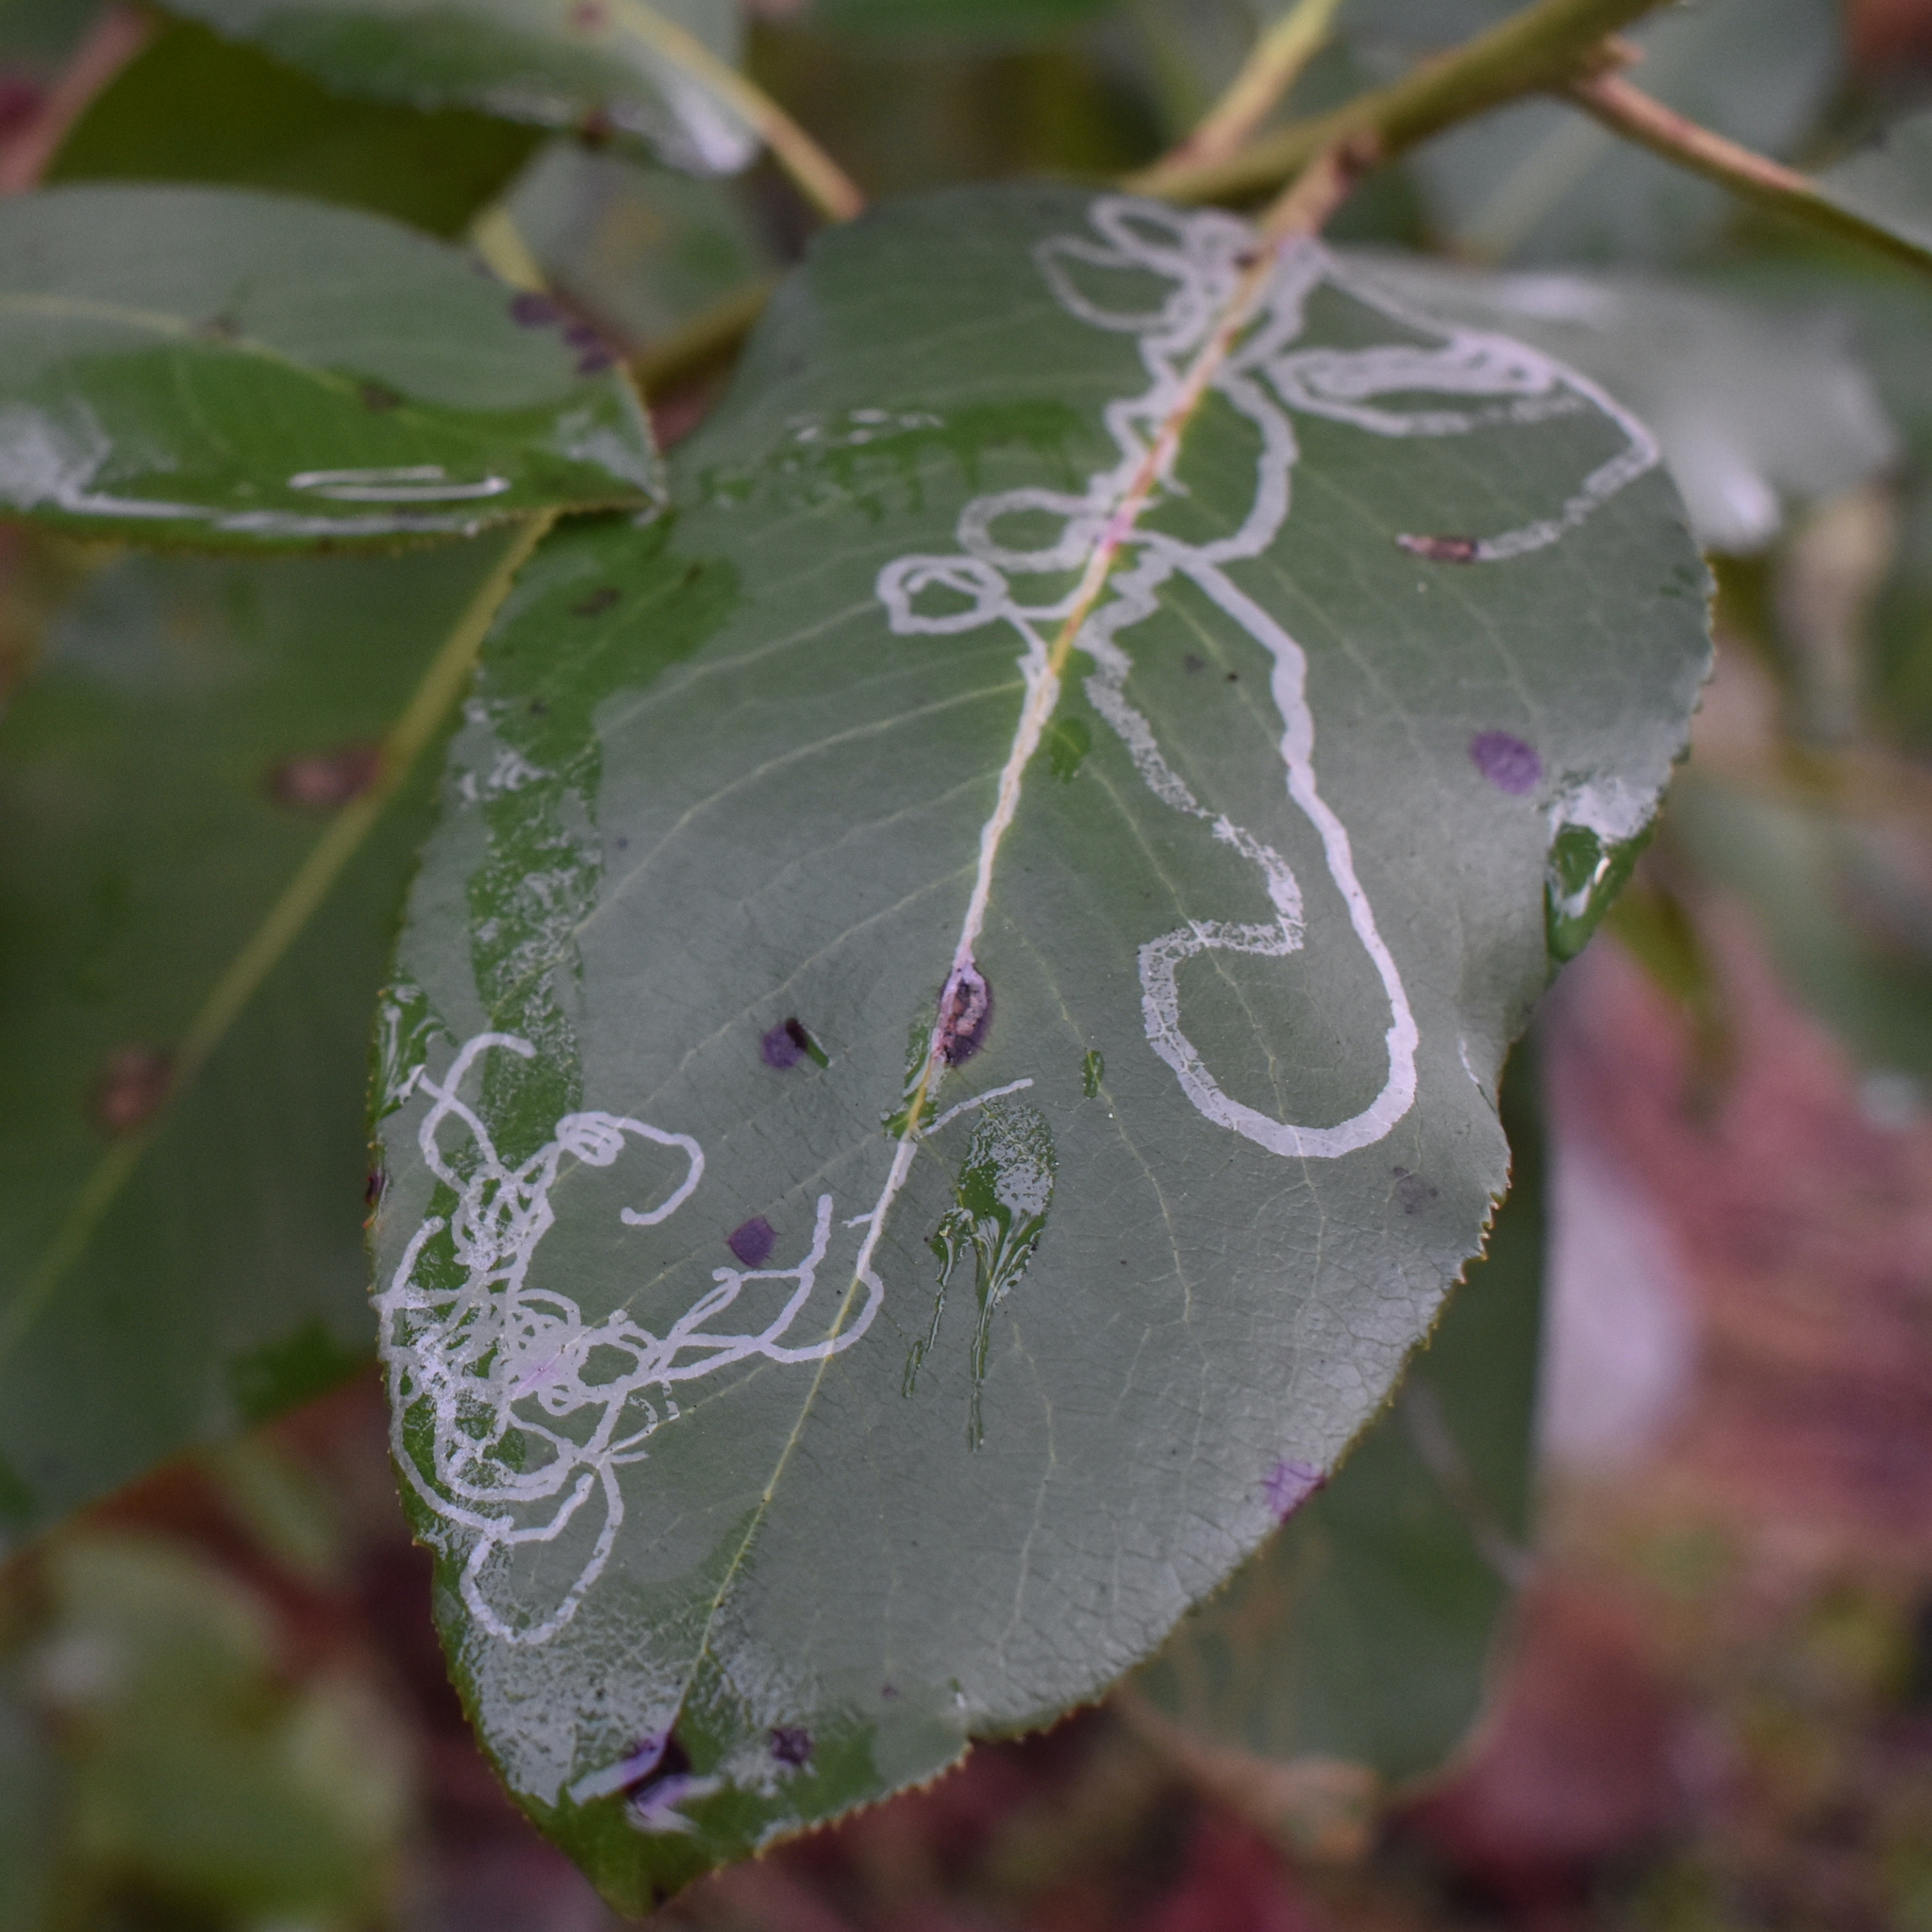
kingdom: Animalia
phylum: Arthropoda
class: Insecta
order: Lepidoptera
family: Gracillariidae
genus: Marmara
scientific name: Marmara arbutiella
